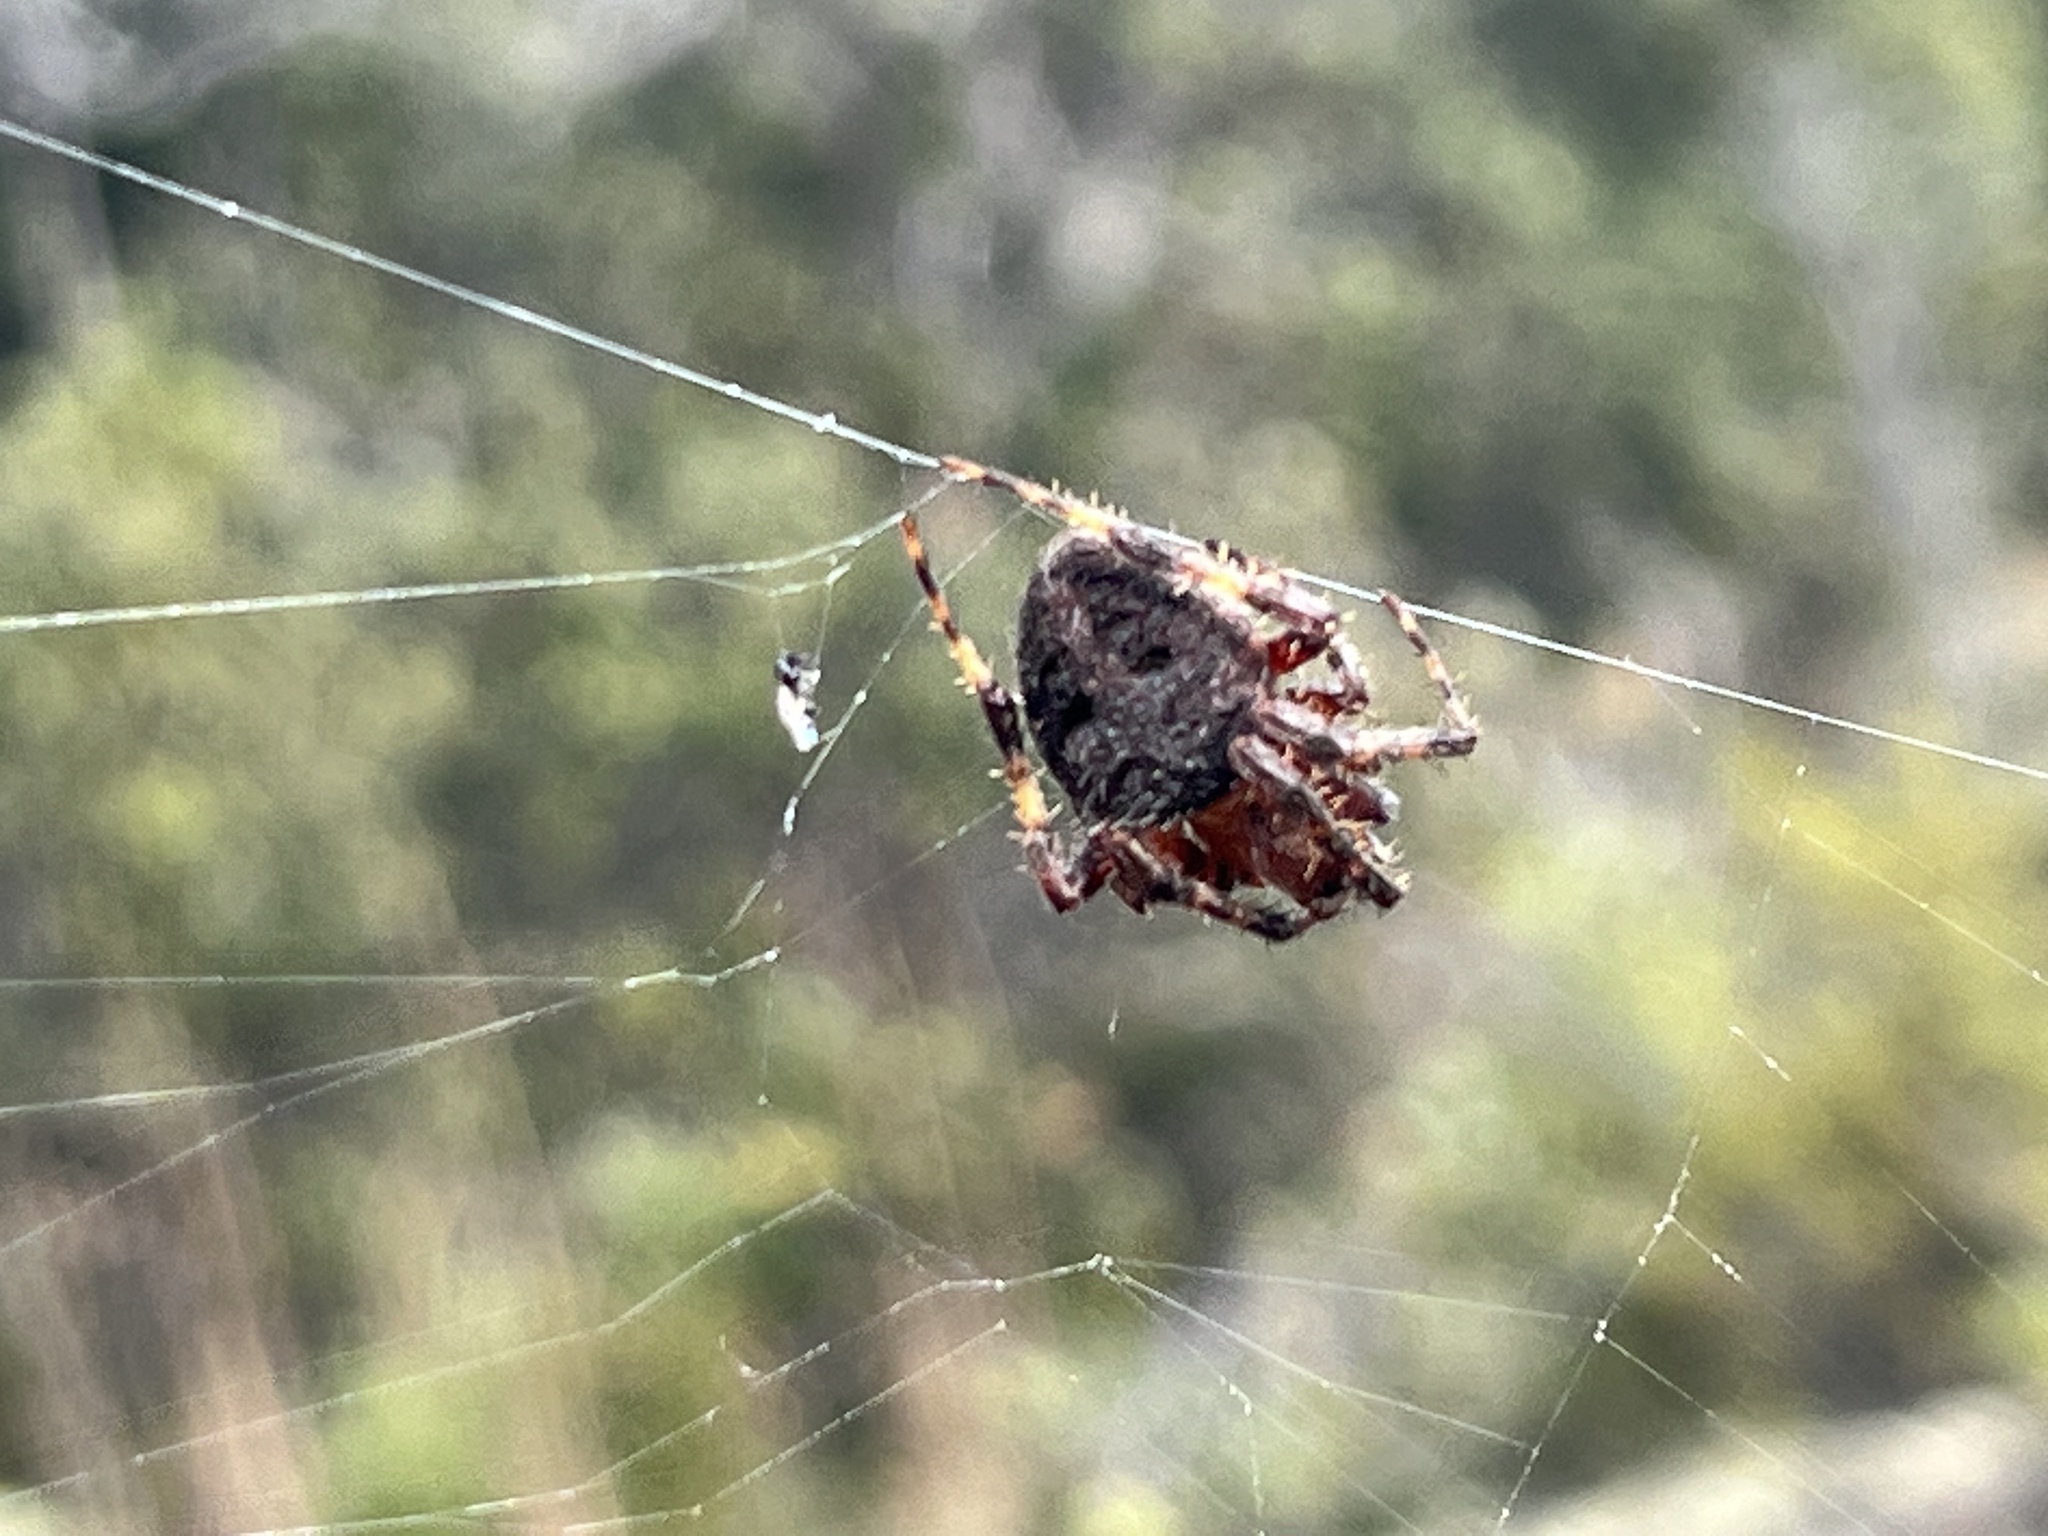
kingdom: Animalia
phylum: Arthropoda
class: Arachnida
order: Araneae
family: Araneidae
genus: Neoscona
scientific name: Neoscona crucifera
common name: Spotted orbweaver
